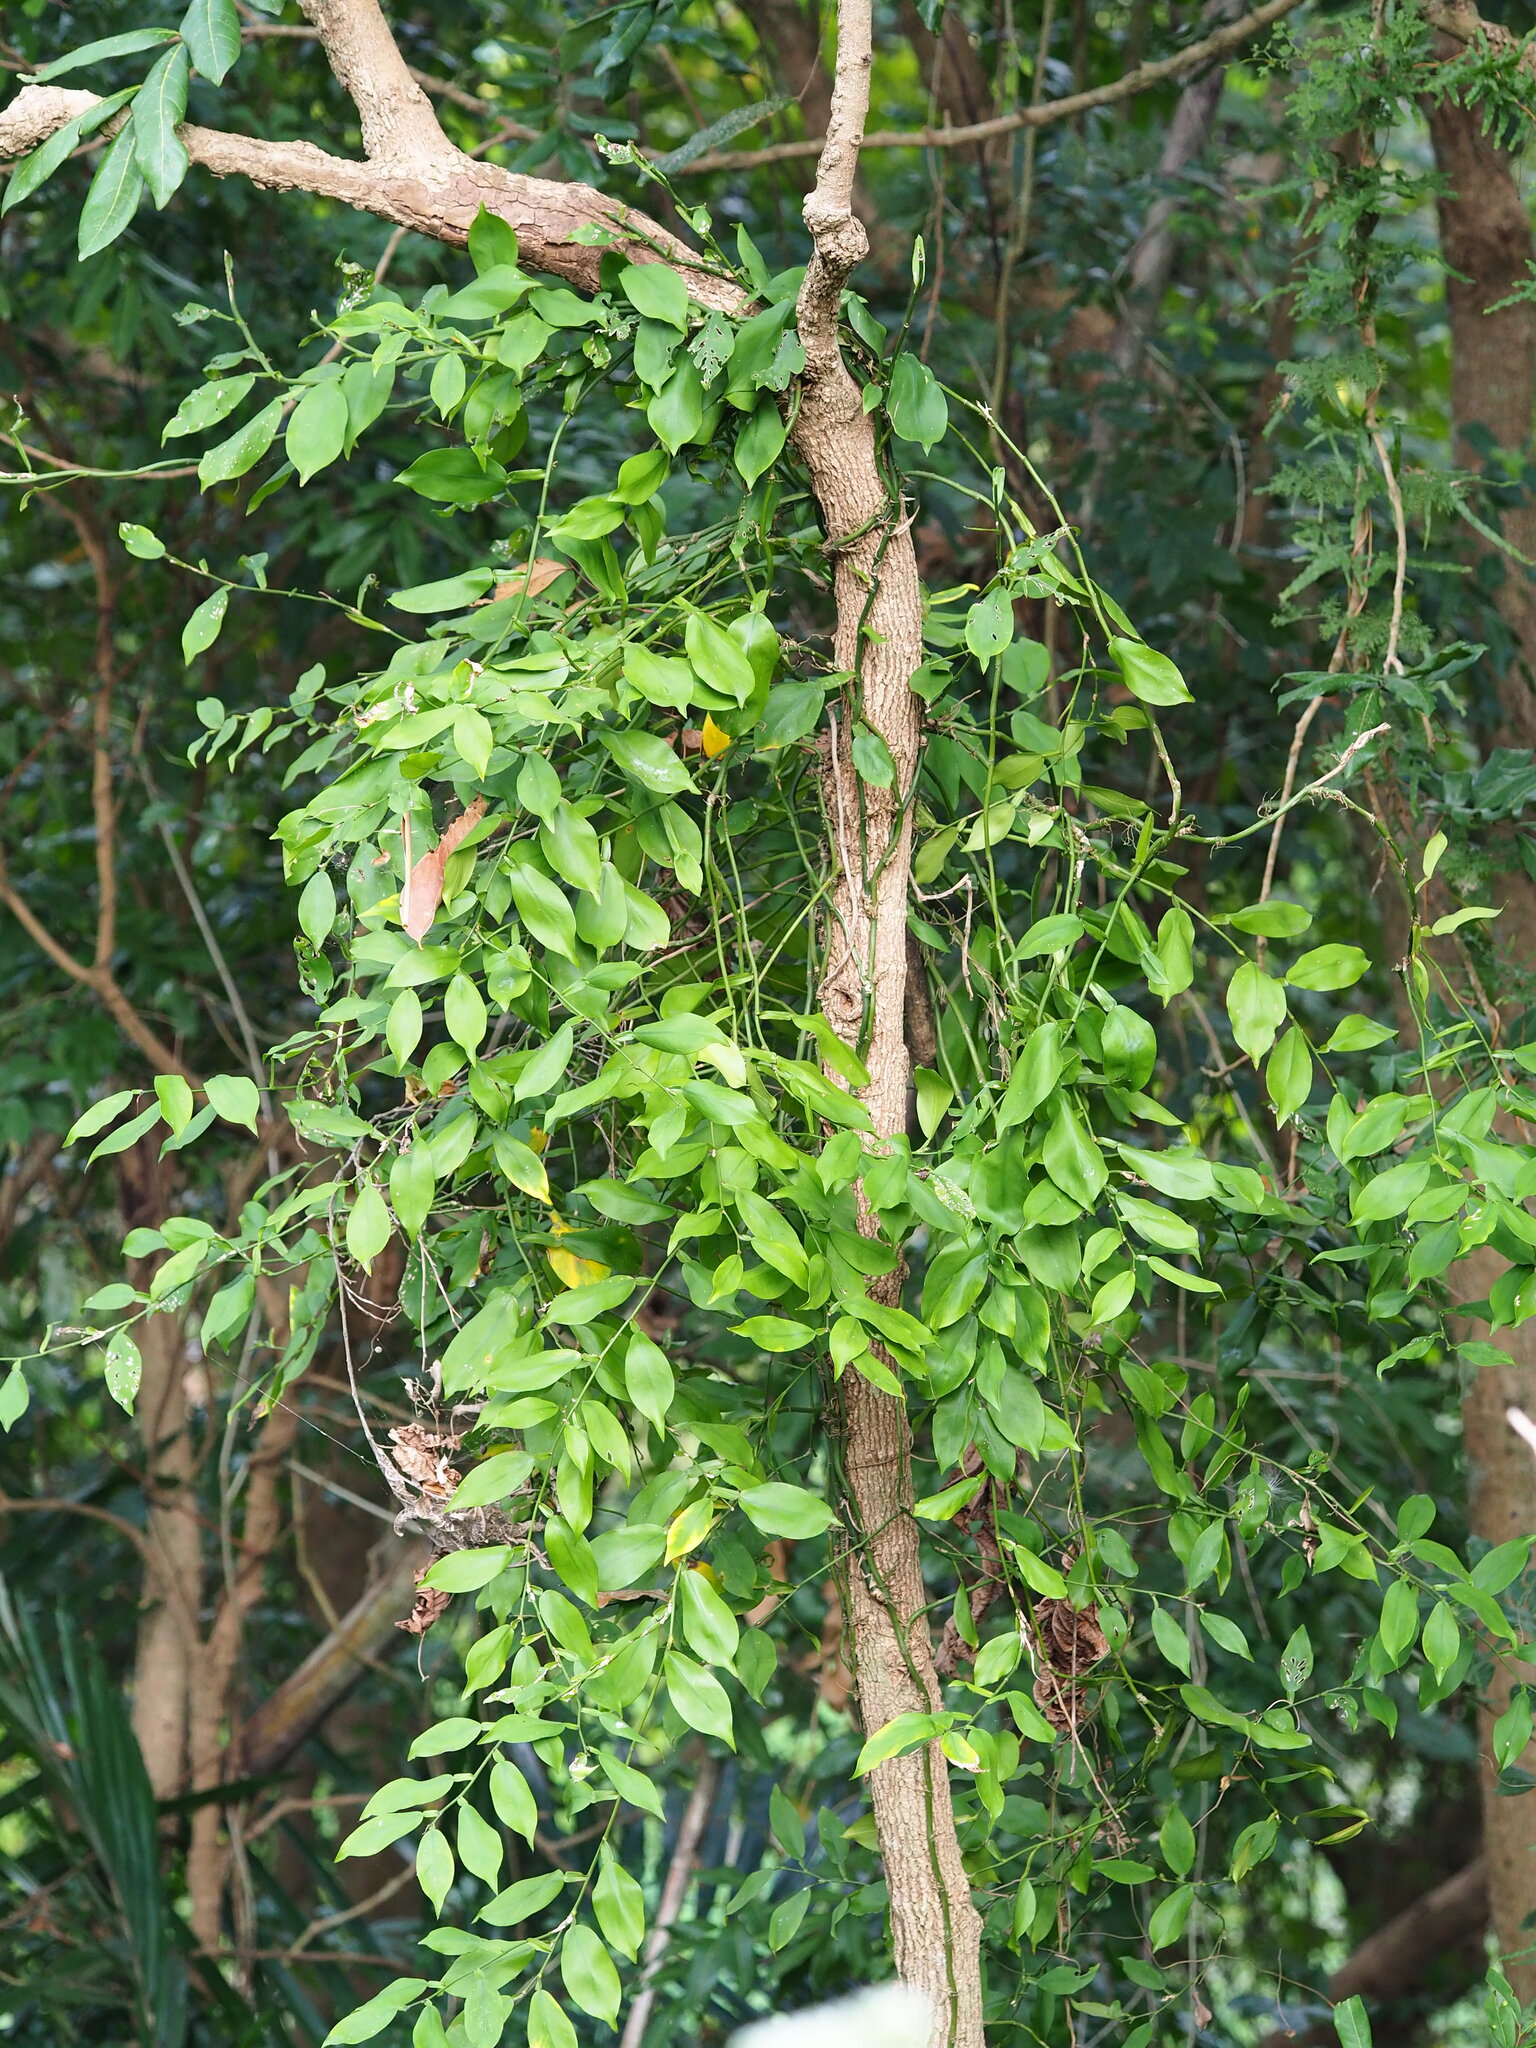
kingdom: Plantae
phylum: Tracheophyta
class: Liliopsida
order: Alismatales
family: Araceae
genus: Pothos
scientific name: Pothos chinensis
